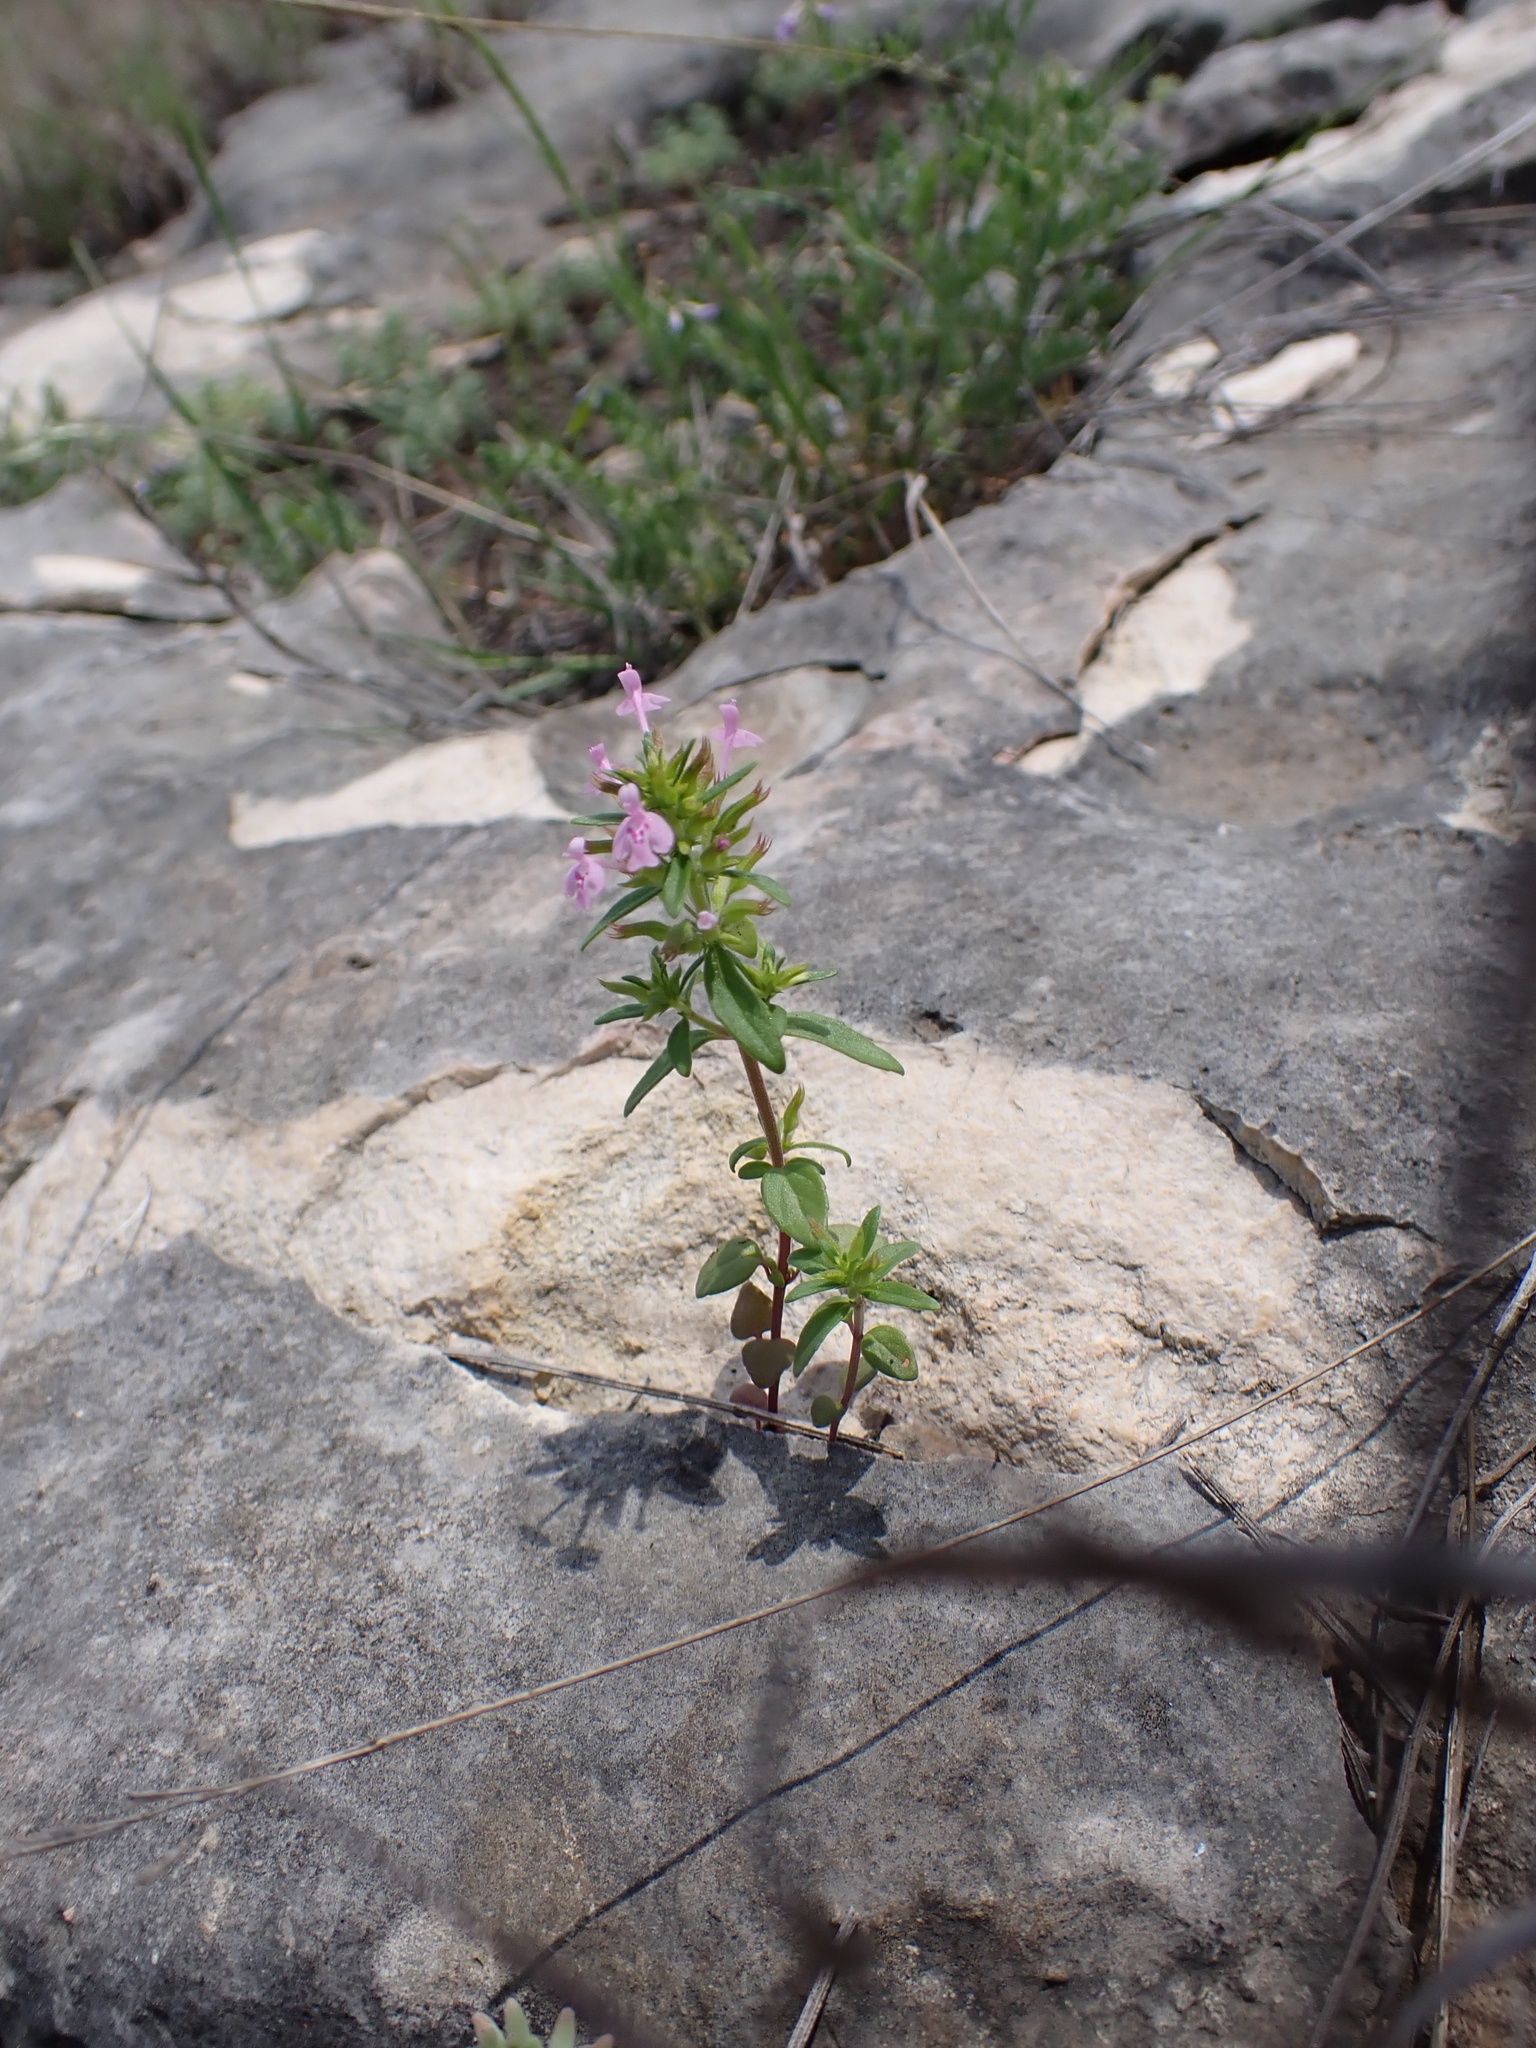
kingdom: Plantae
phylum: Tracheophyta
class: Magnoliopsida
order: Lamiales
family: Lamiaceae
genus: Hedeoma
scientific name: Hedeoma acinoides
